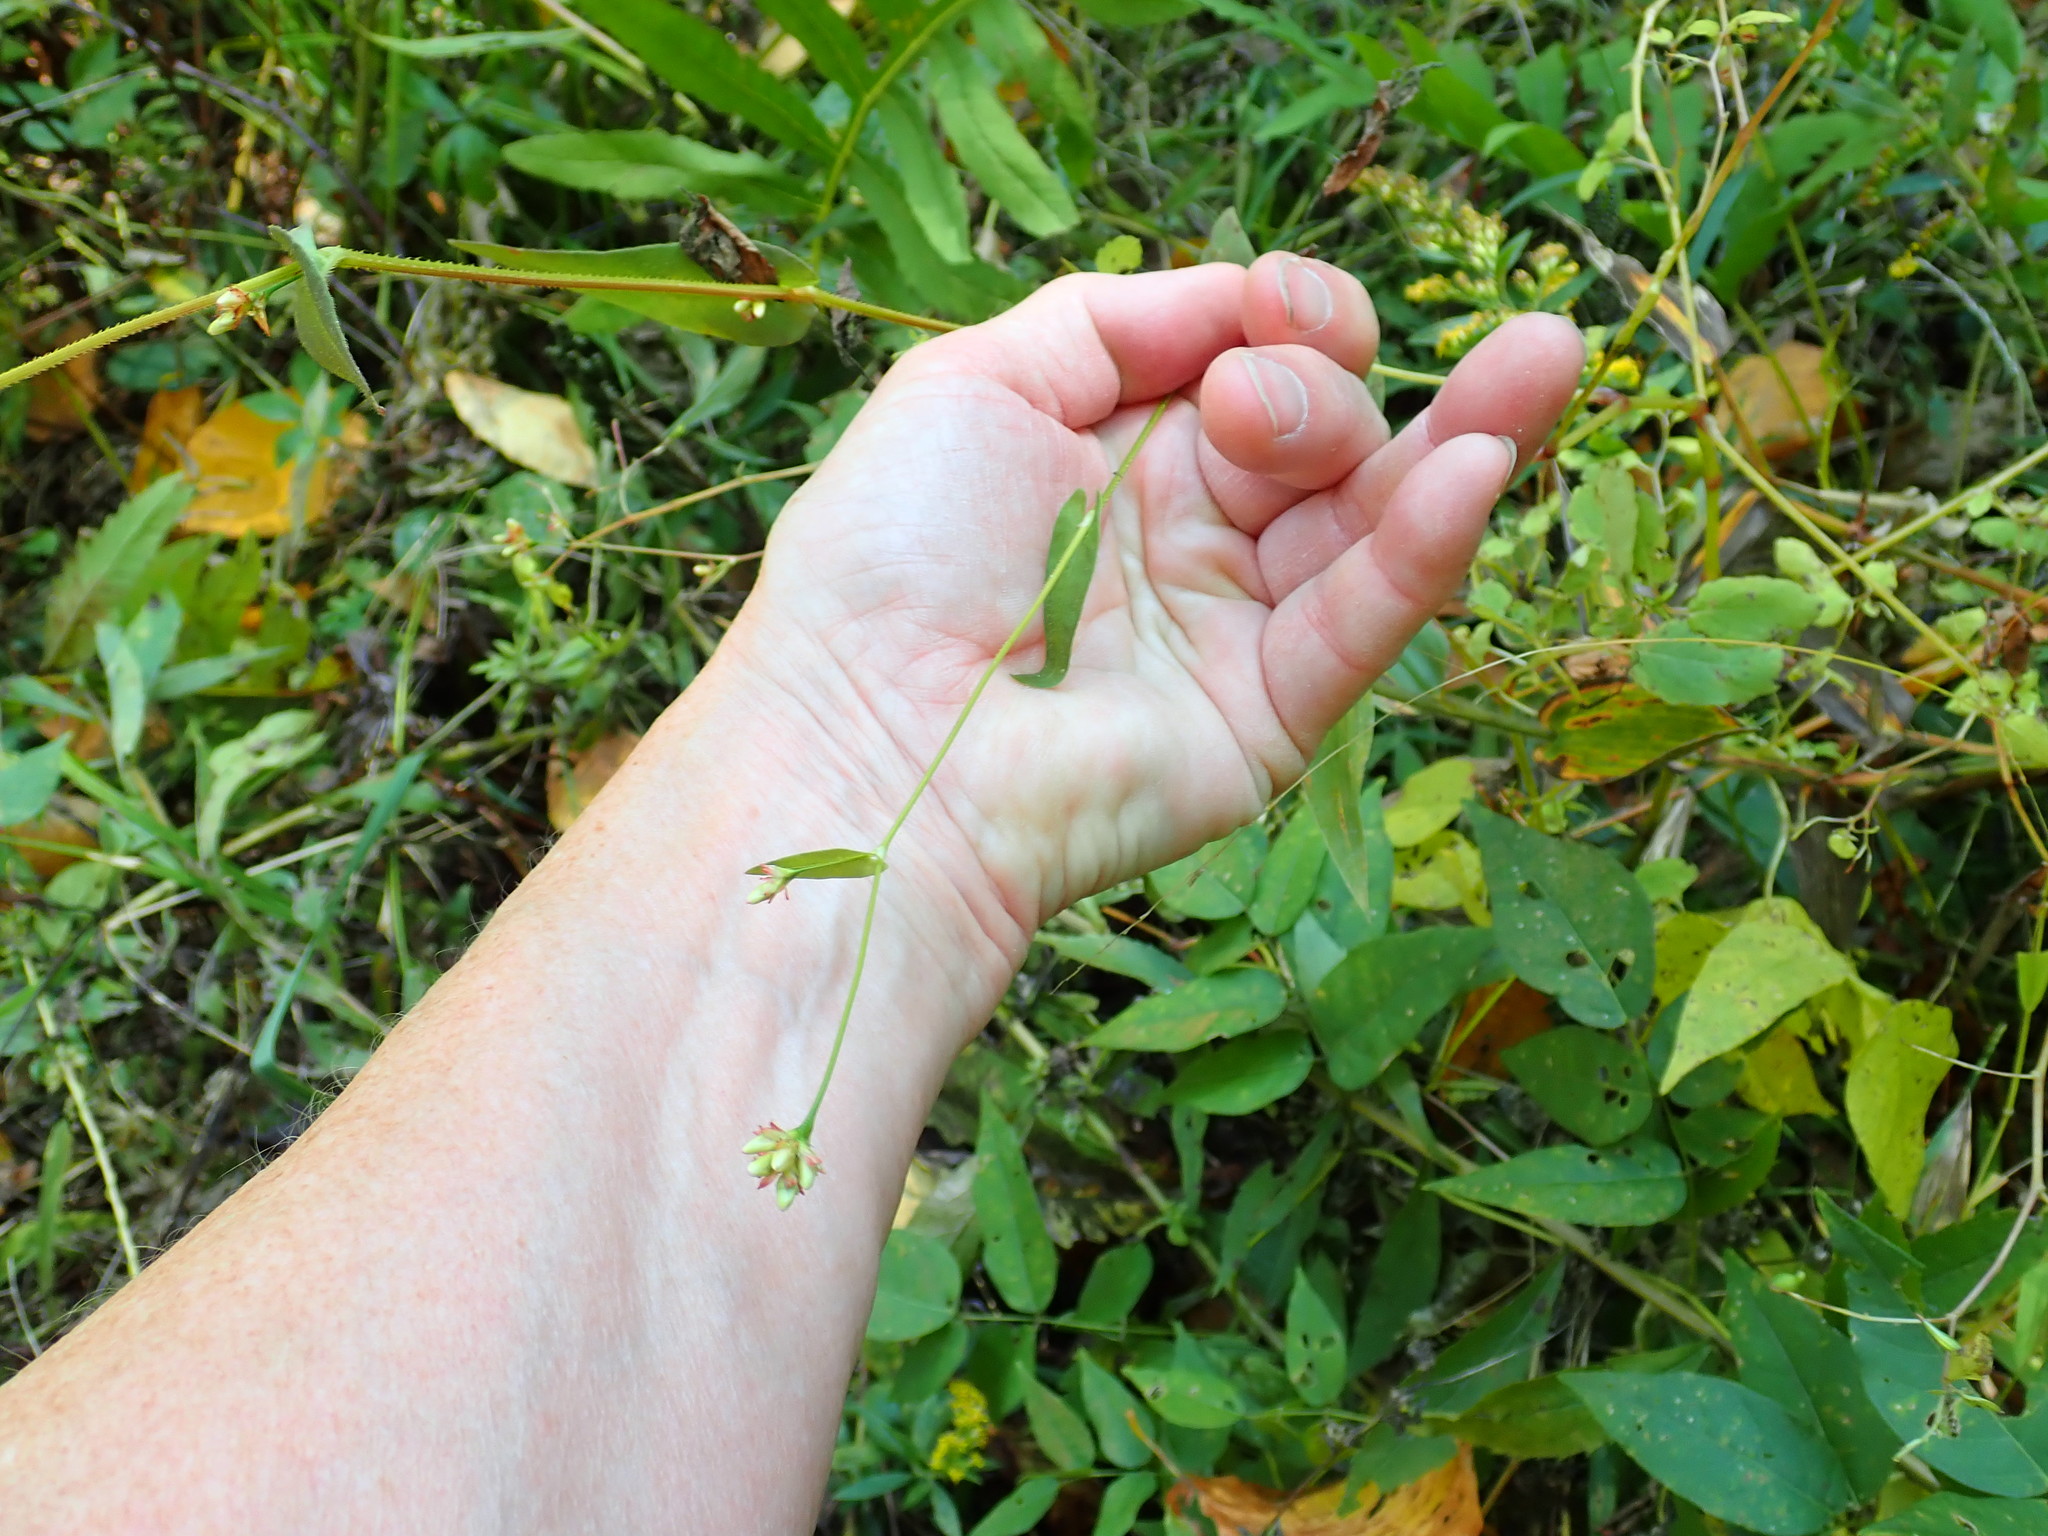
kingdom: Plantae
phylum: Tracheophyta
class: Magnoliopsida
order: Caryophyllales
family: Polygonaceae
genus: Persicaria
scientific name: Persicaria sagittata
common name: American tearthumb
